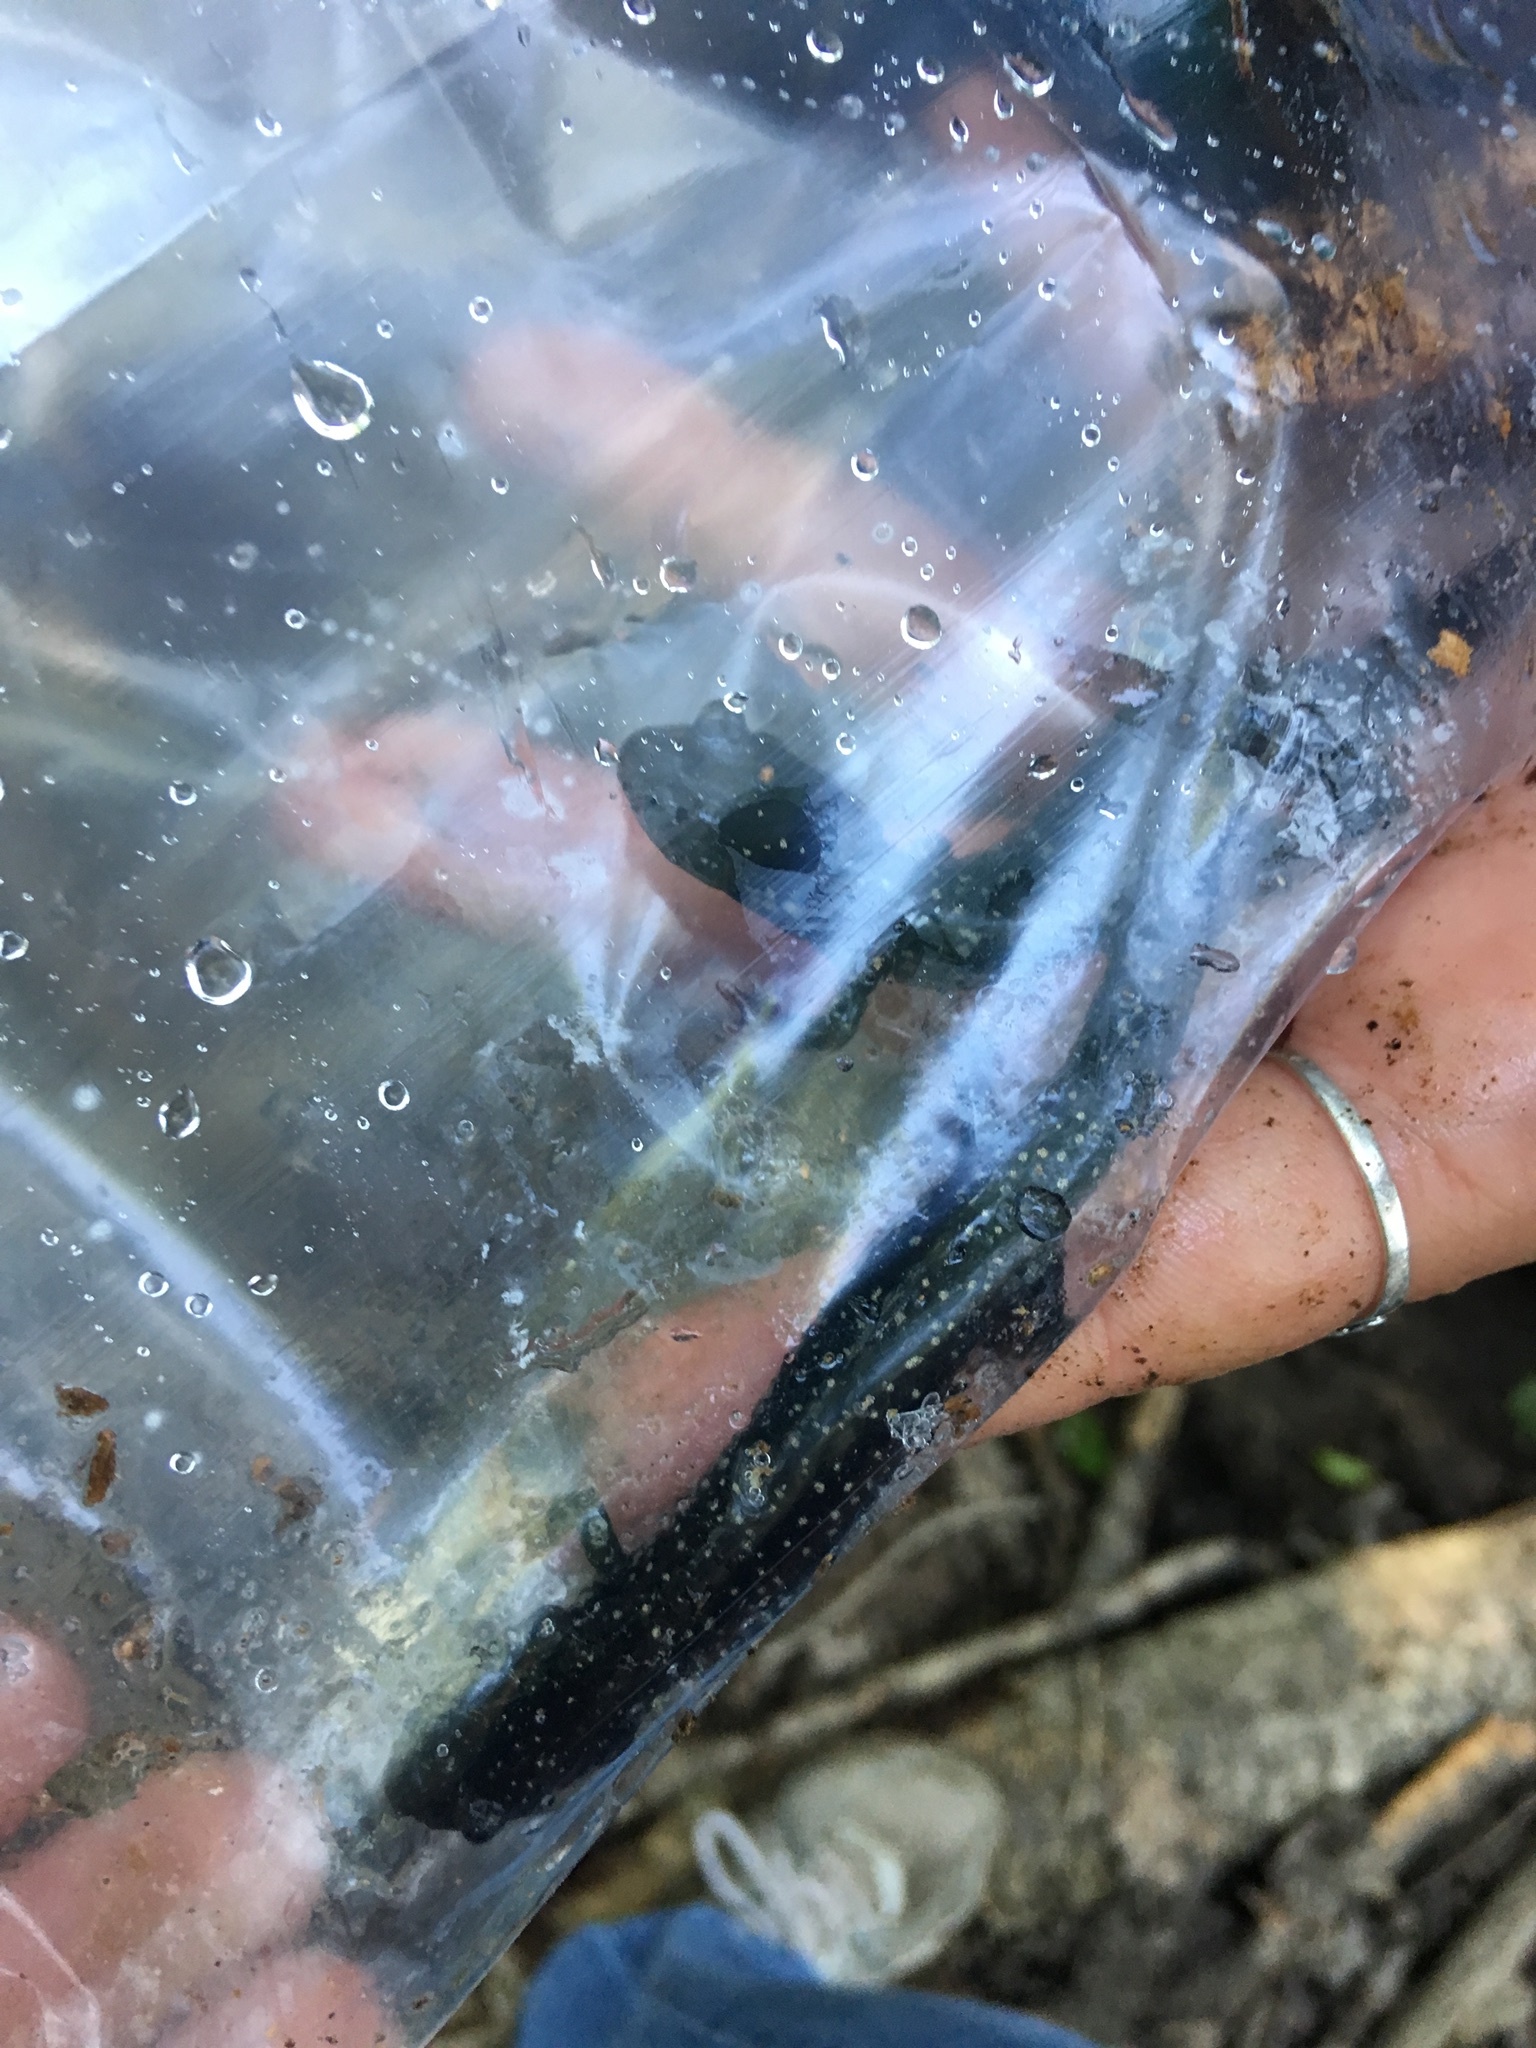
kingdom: Animalia
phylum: Chordata
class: Amphibia
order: Caudata
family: Plethodontidae
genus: Plethodon
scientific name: Plethodon albagula
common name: Western slimy salamander
